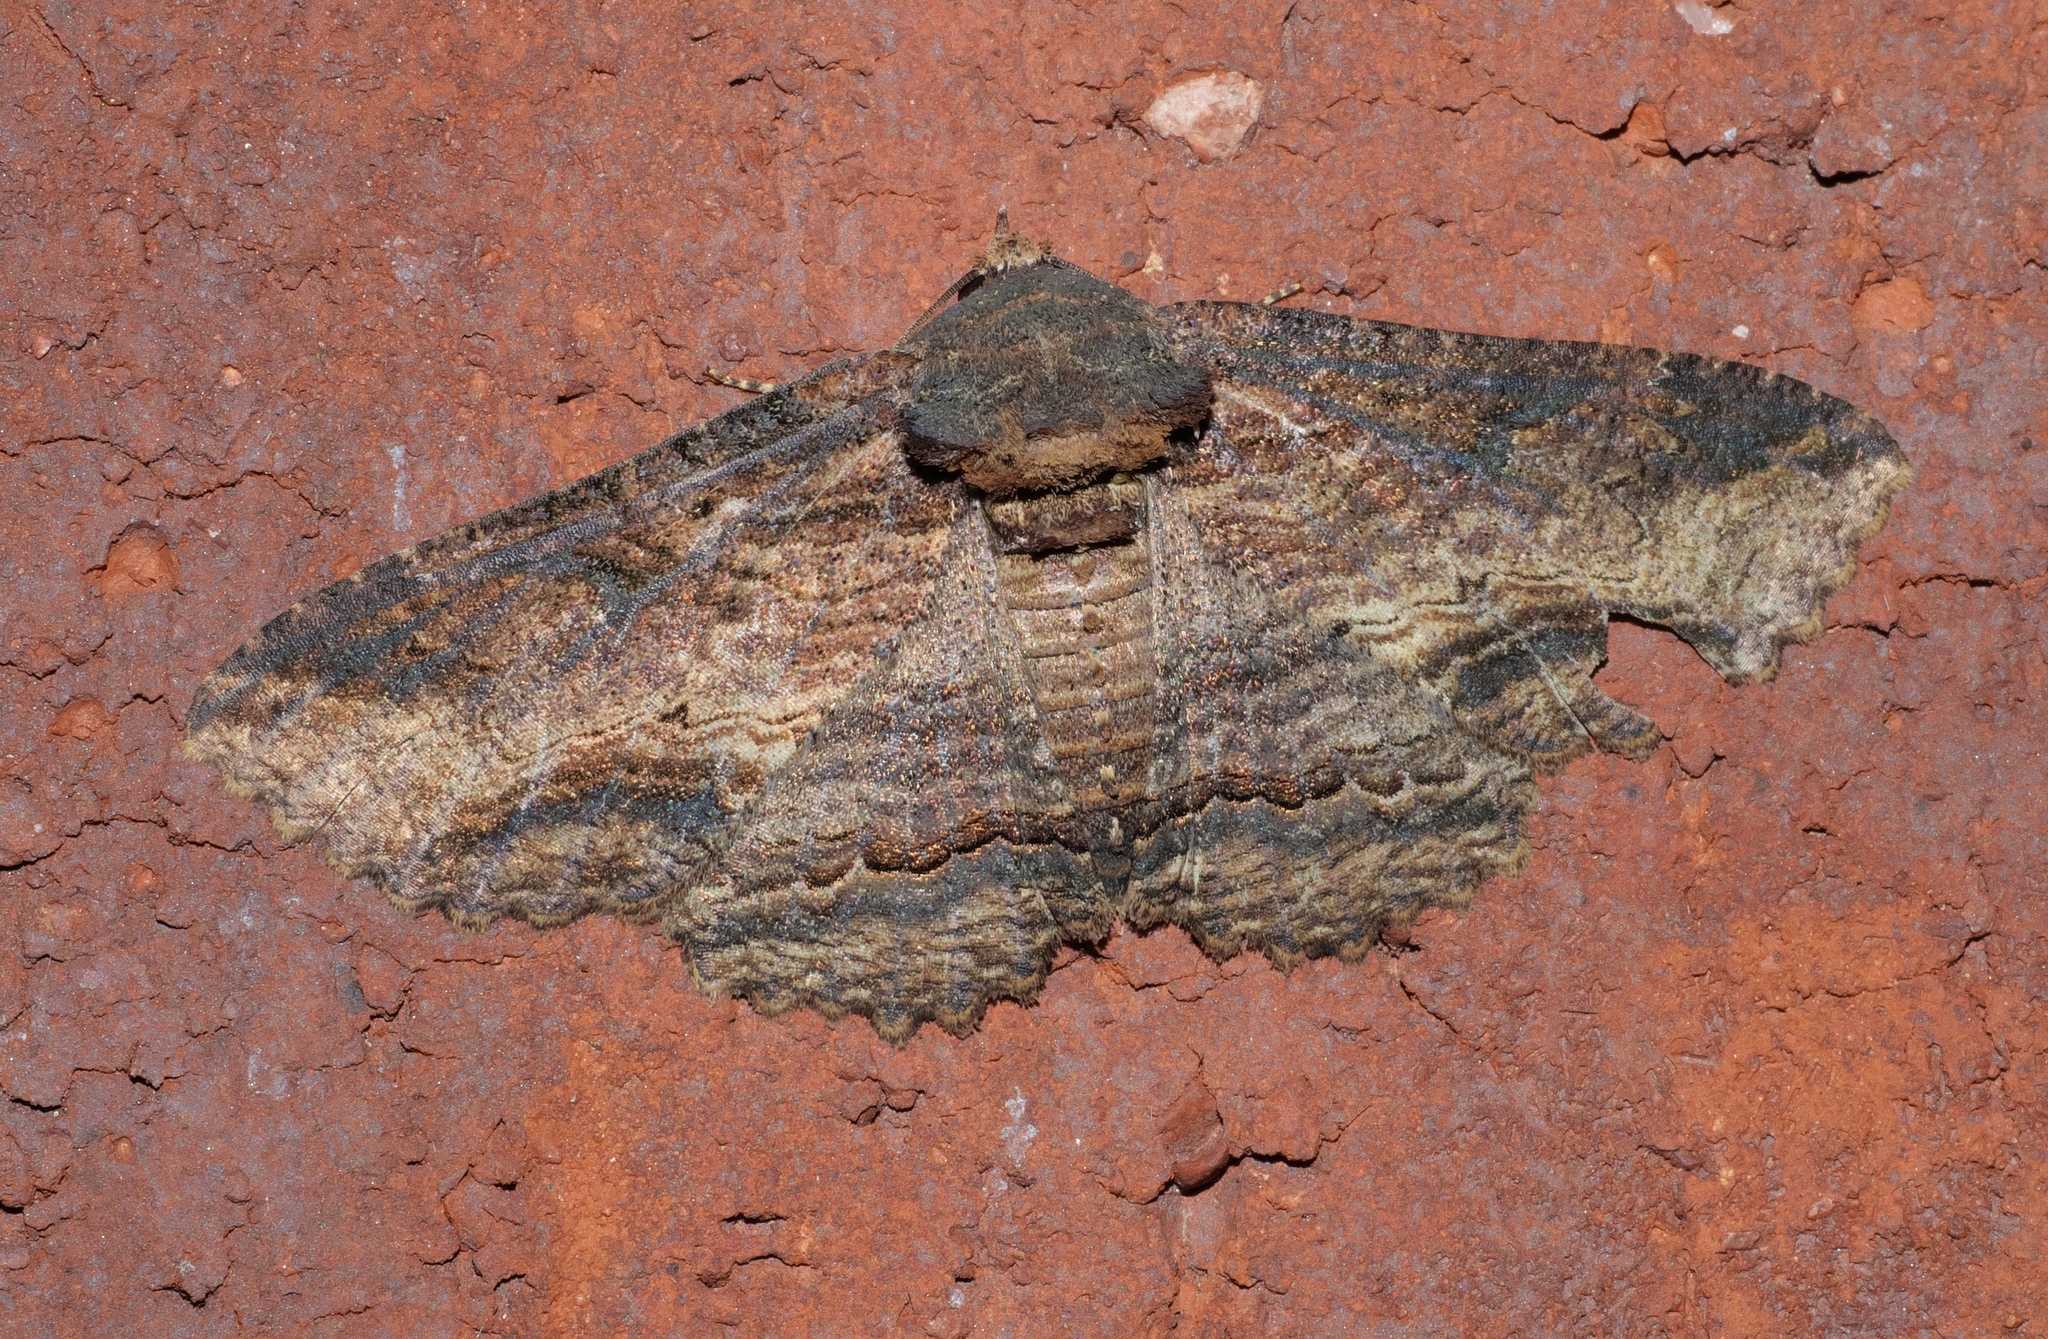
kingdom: Animalia
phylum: Arthropoda
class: Insecta
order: Lepidoptera
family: Erebidae
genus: Zale
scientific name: Zale lunata
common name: Lunate zale moth
